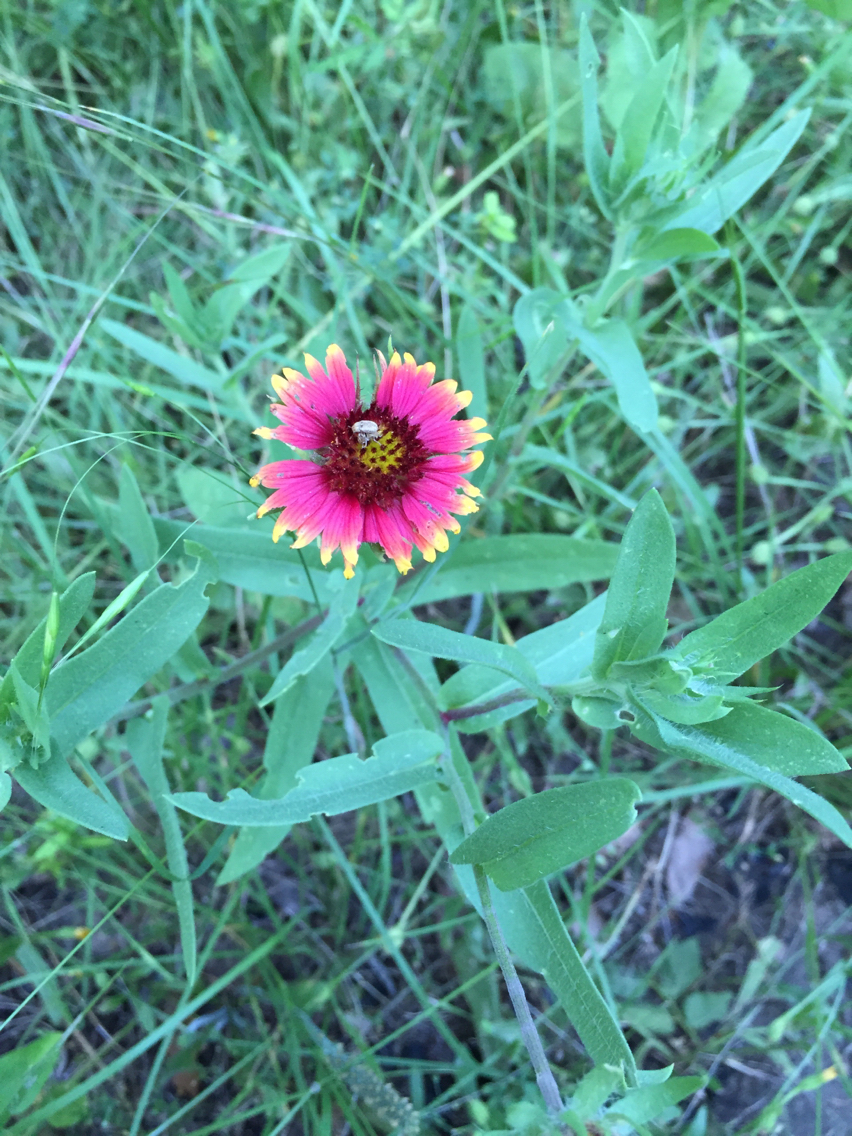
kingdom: Plantae
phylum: Tracheophyta
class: Magnoliopsida
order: Asterales
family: Asteraceae
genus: Gaillardia
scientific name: Gaillardia pulchella
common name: Firewheel
